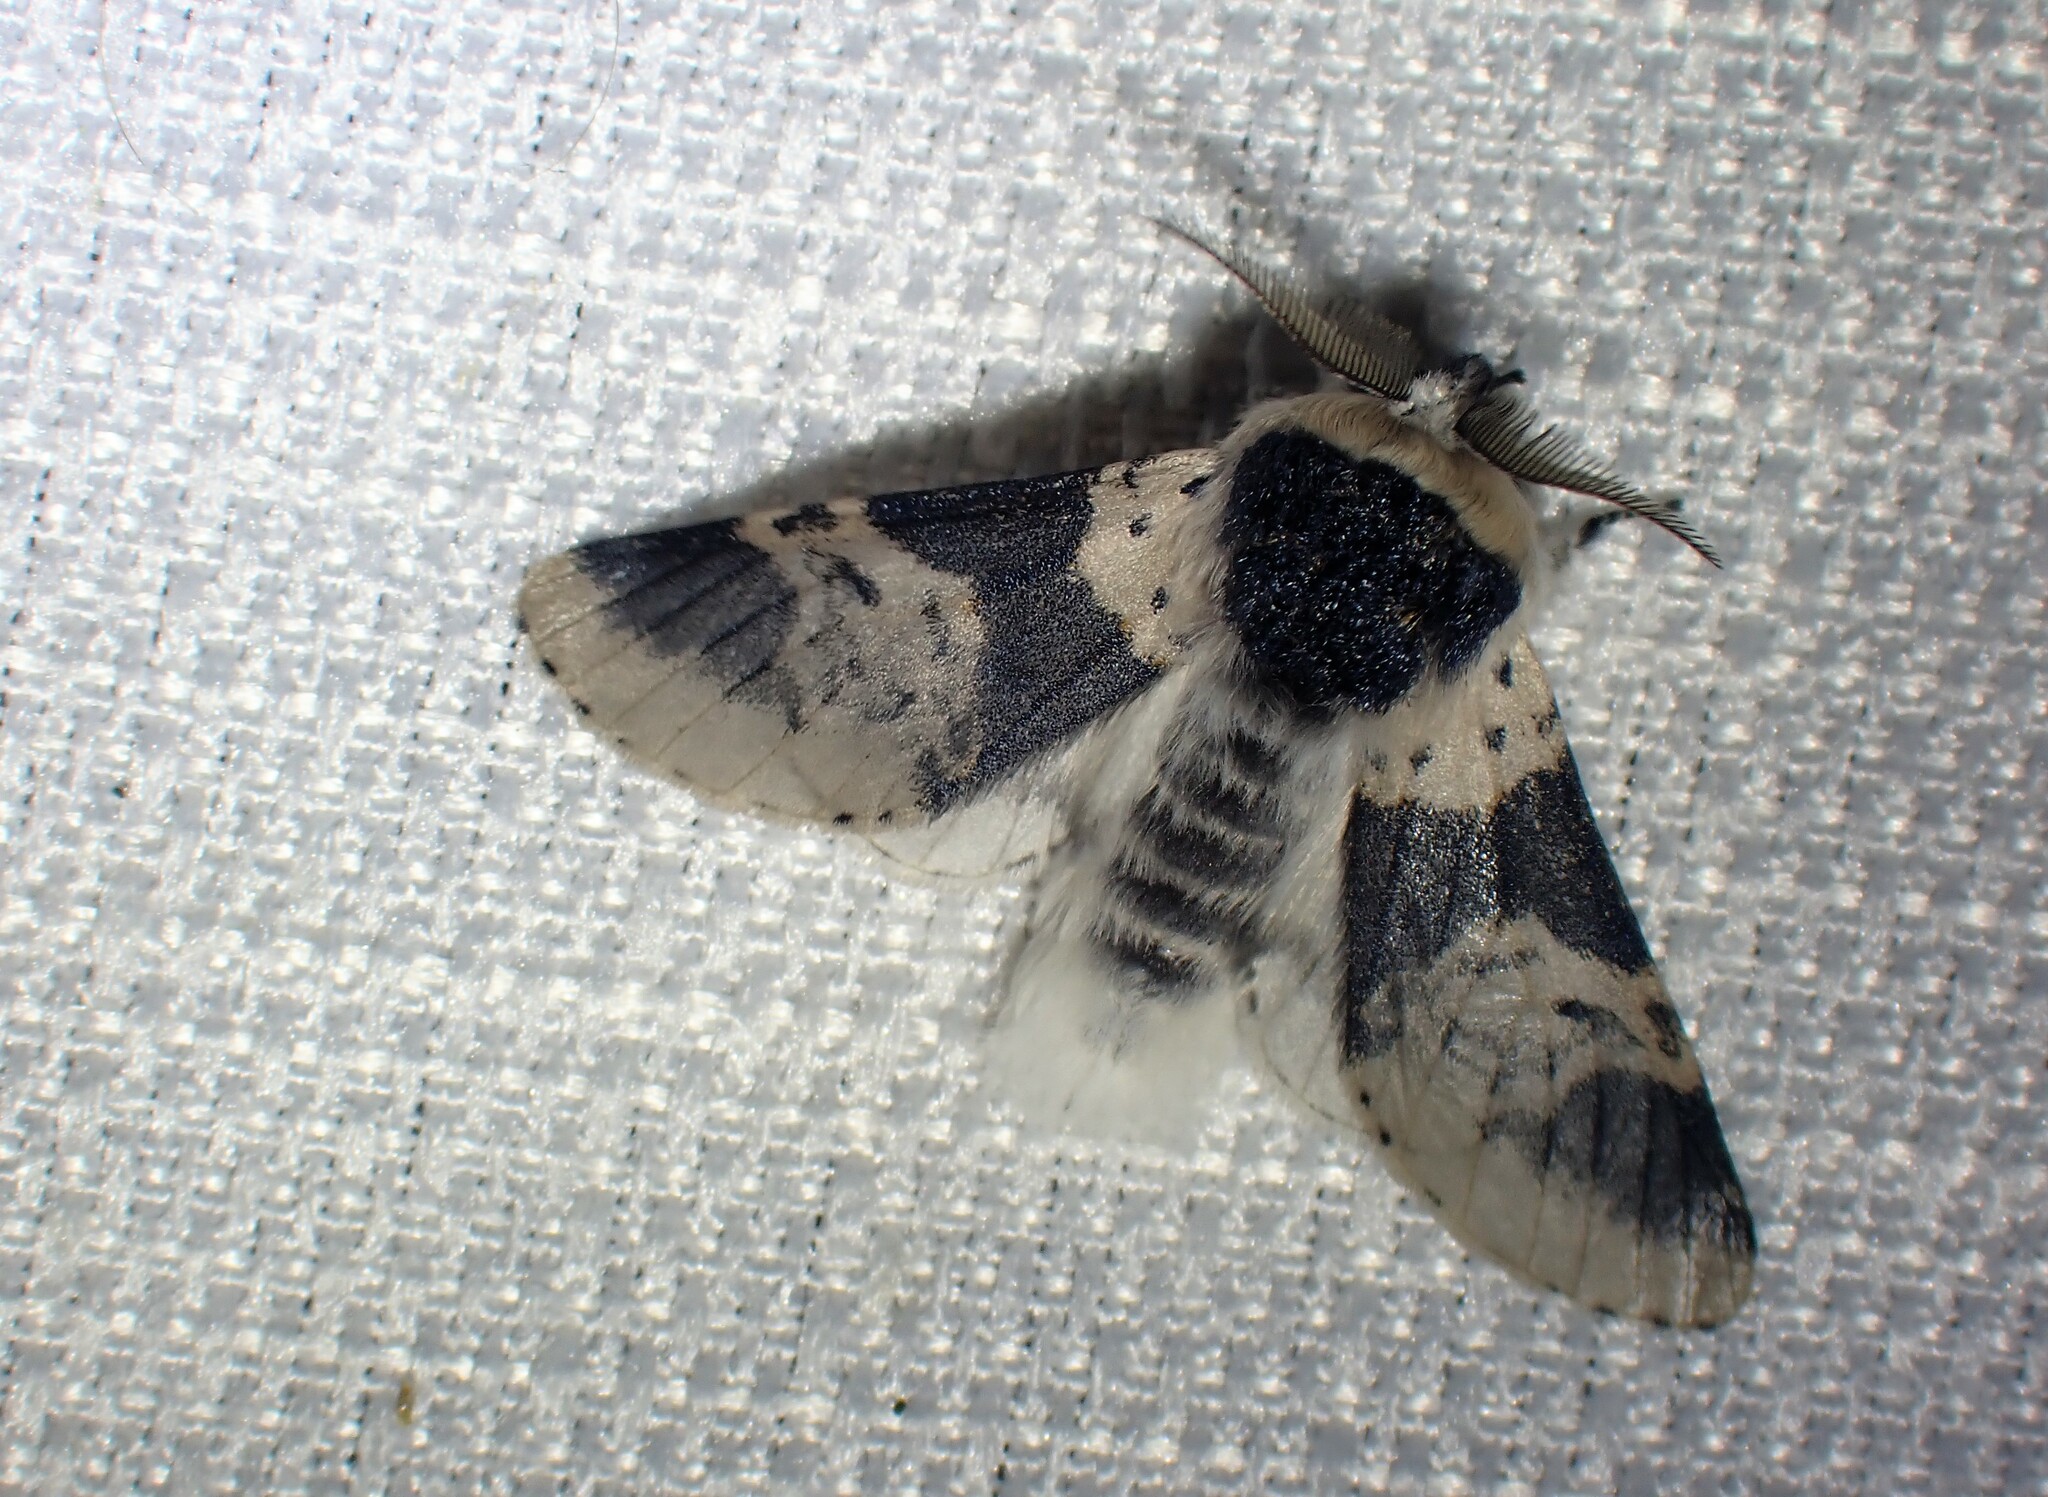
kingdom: Animalia
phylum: Arthropoda
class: Insecta
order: Lepidoptera
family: Notodontidae
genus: Furcula
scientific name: Furcula modesta
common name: Modest furcula moth
